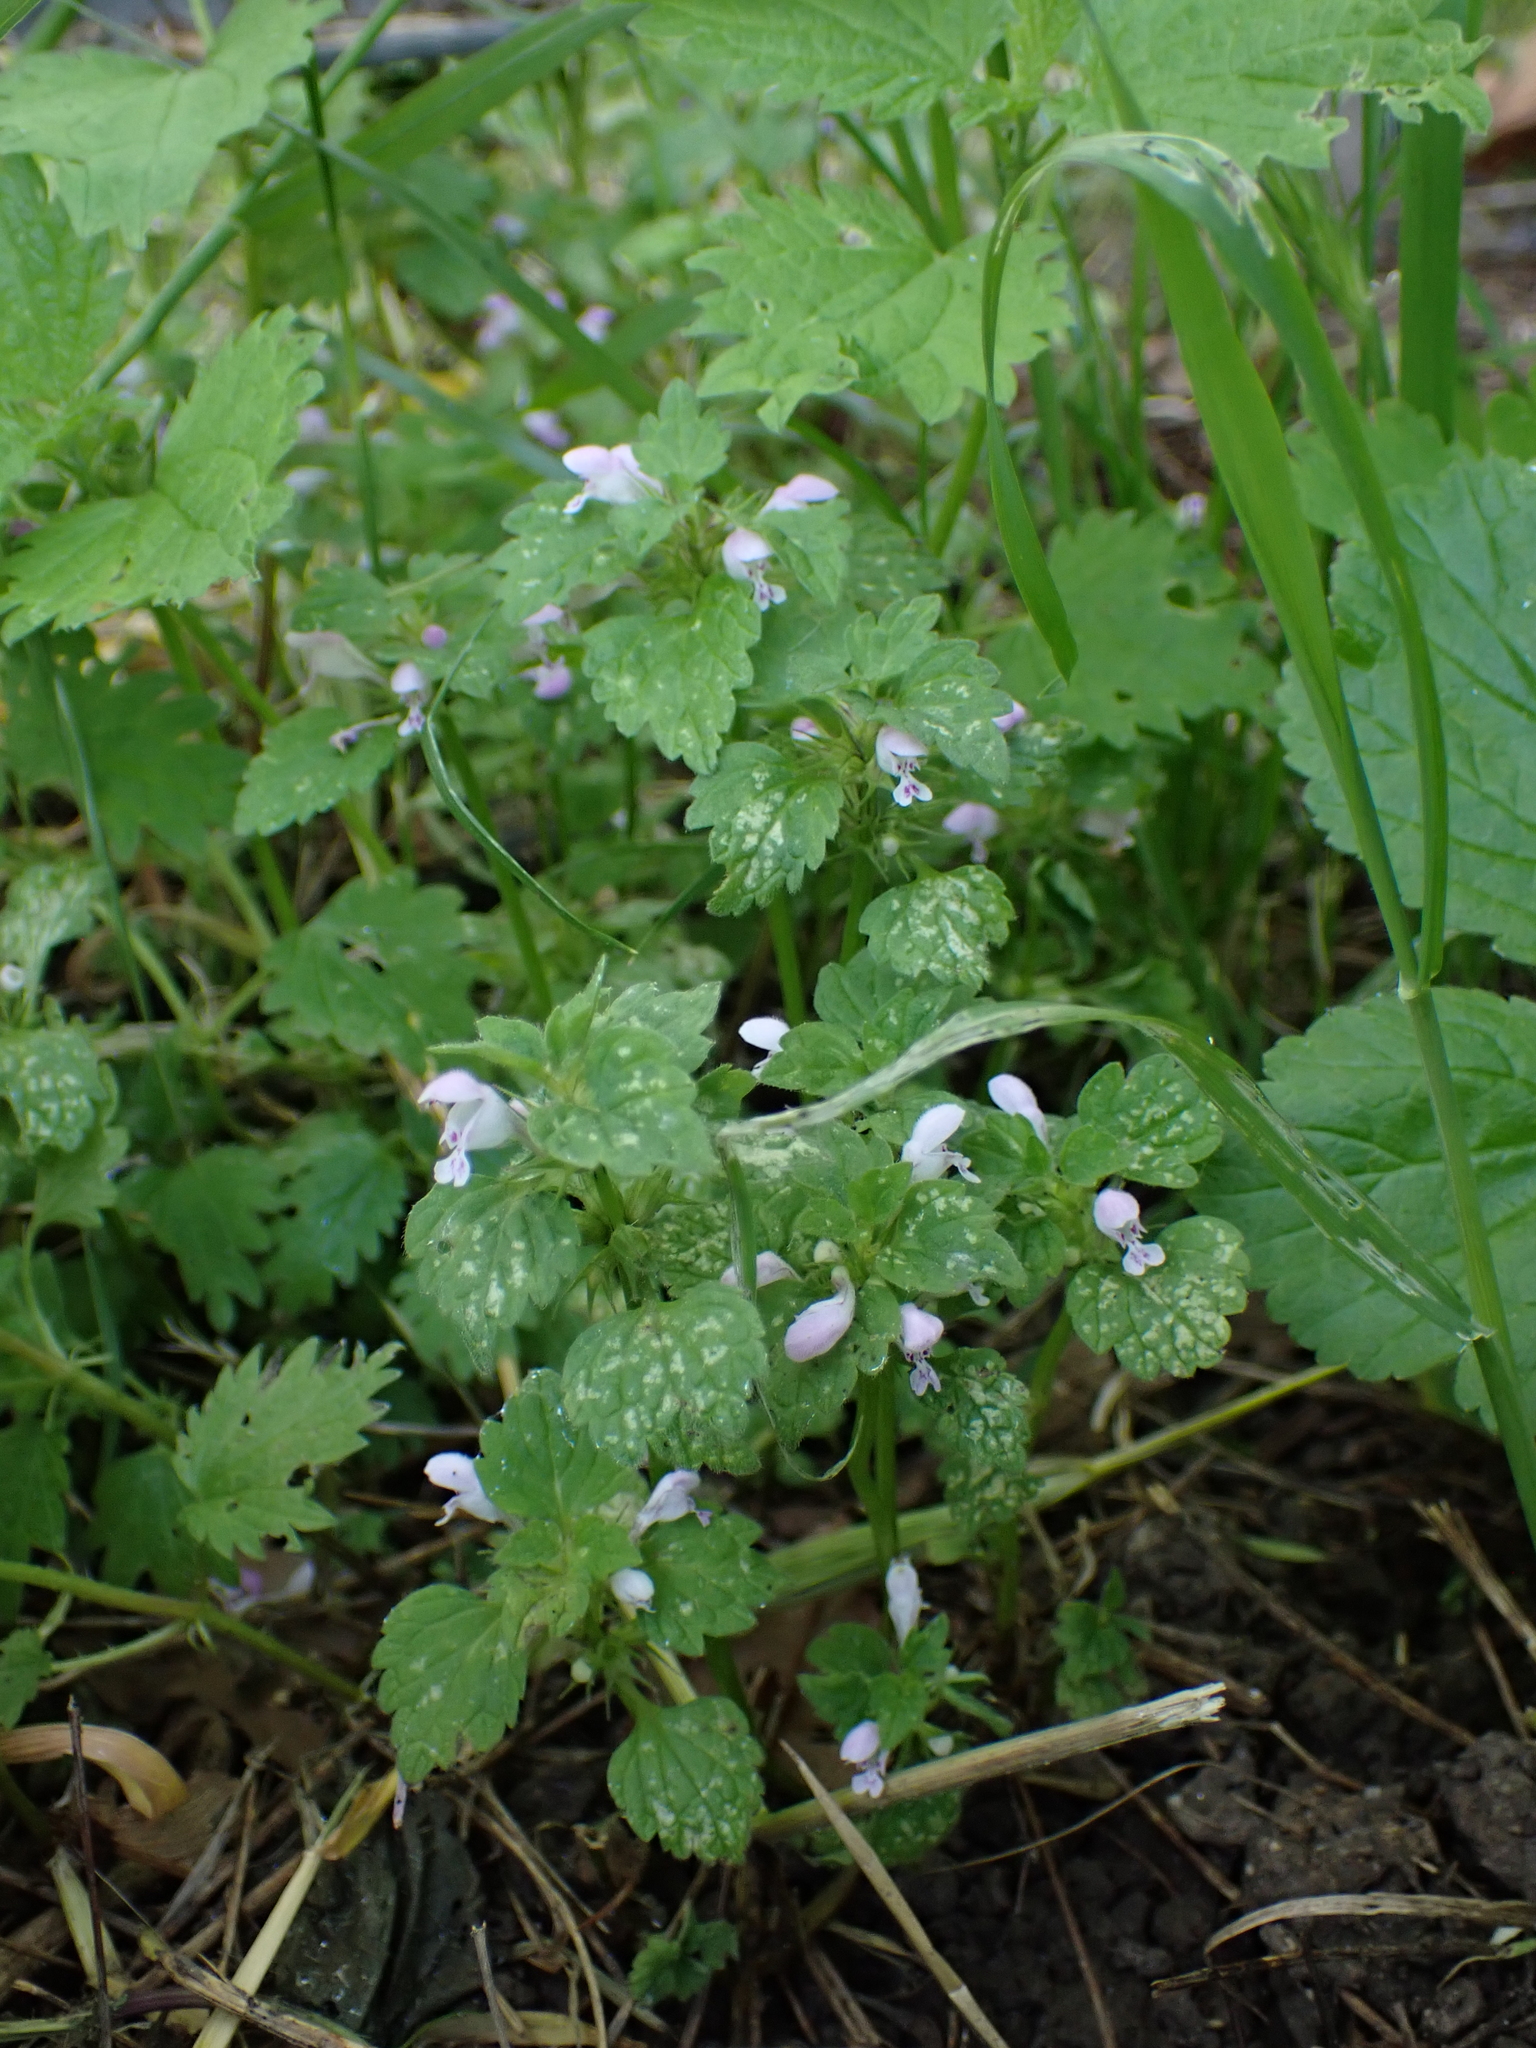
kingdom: Plantae
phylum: Tracheophyta
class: Magnoliopsida
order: Lamiales
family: Lamiaceae
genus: Lamium
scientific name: Lamium purpureum
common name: Red dead-nettle
